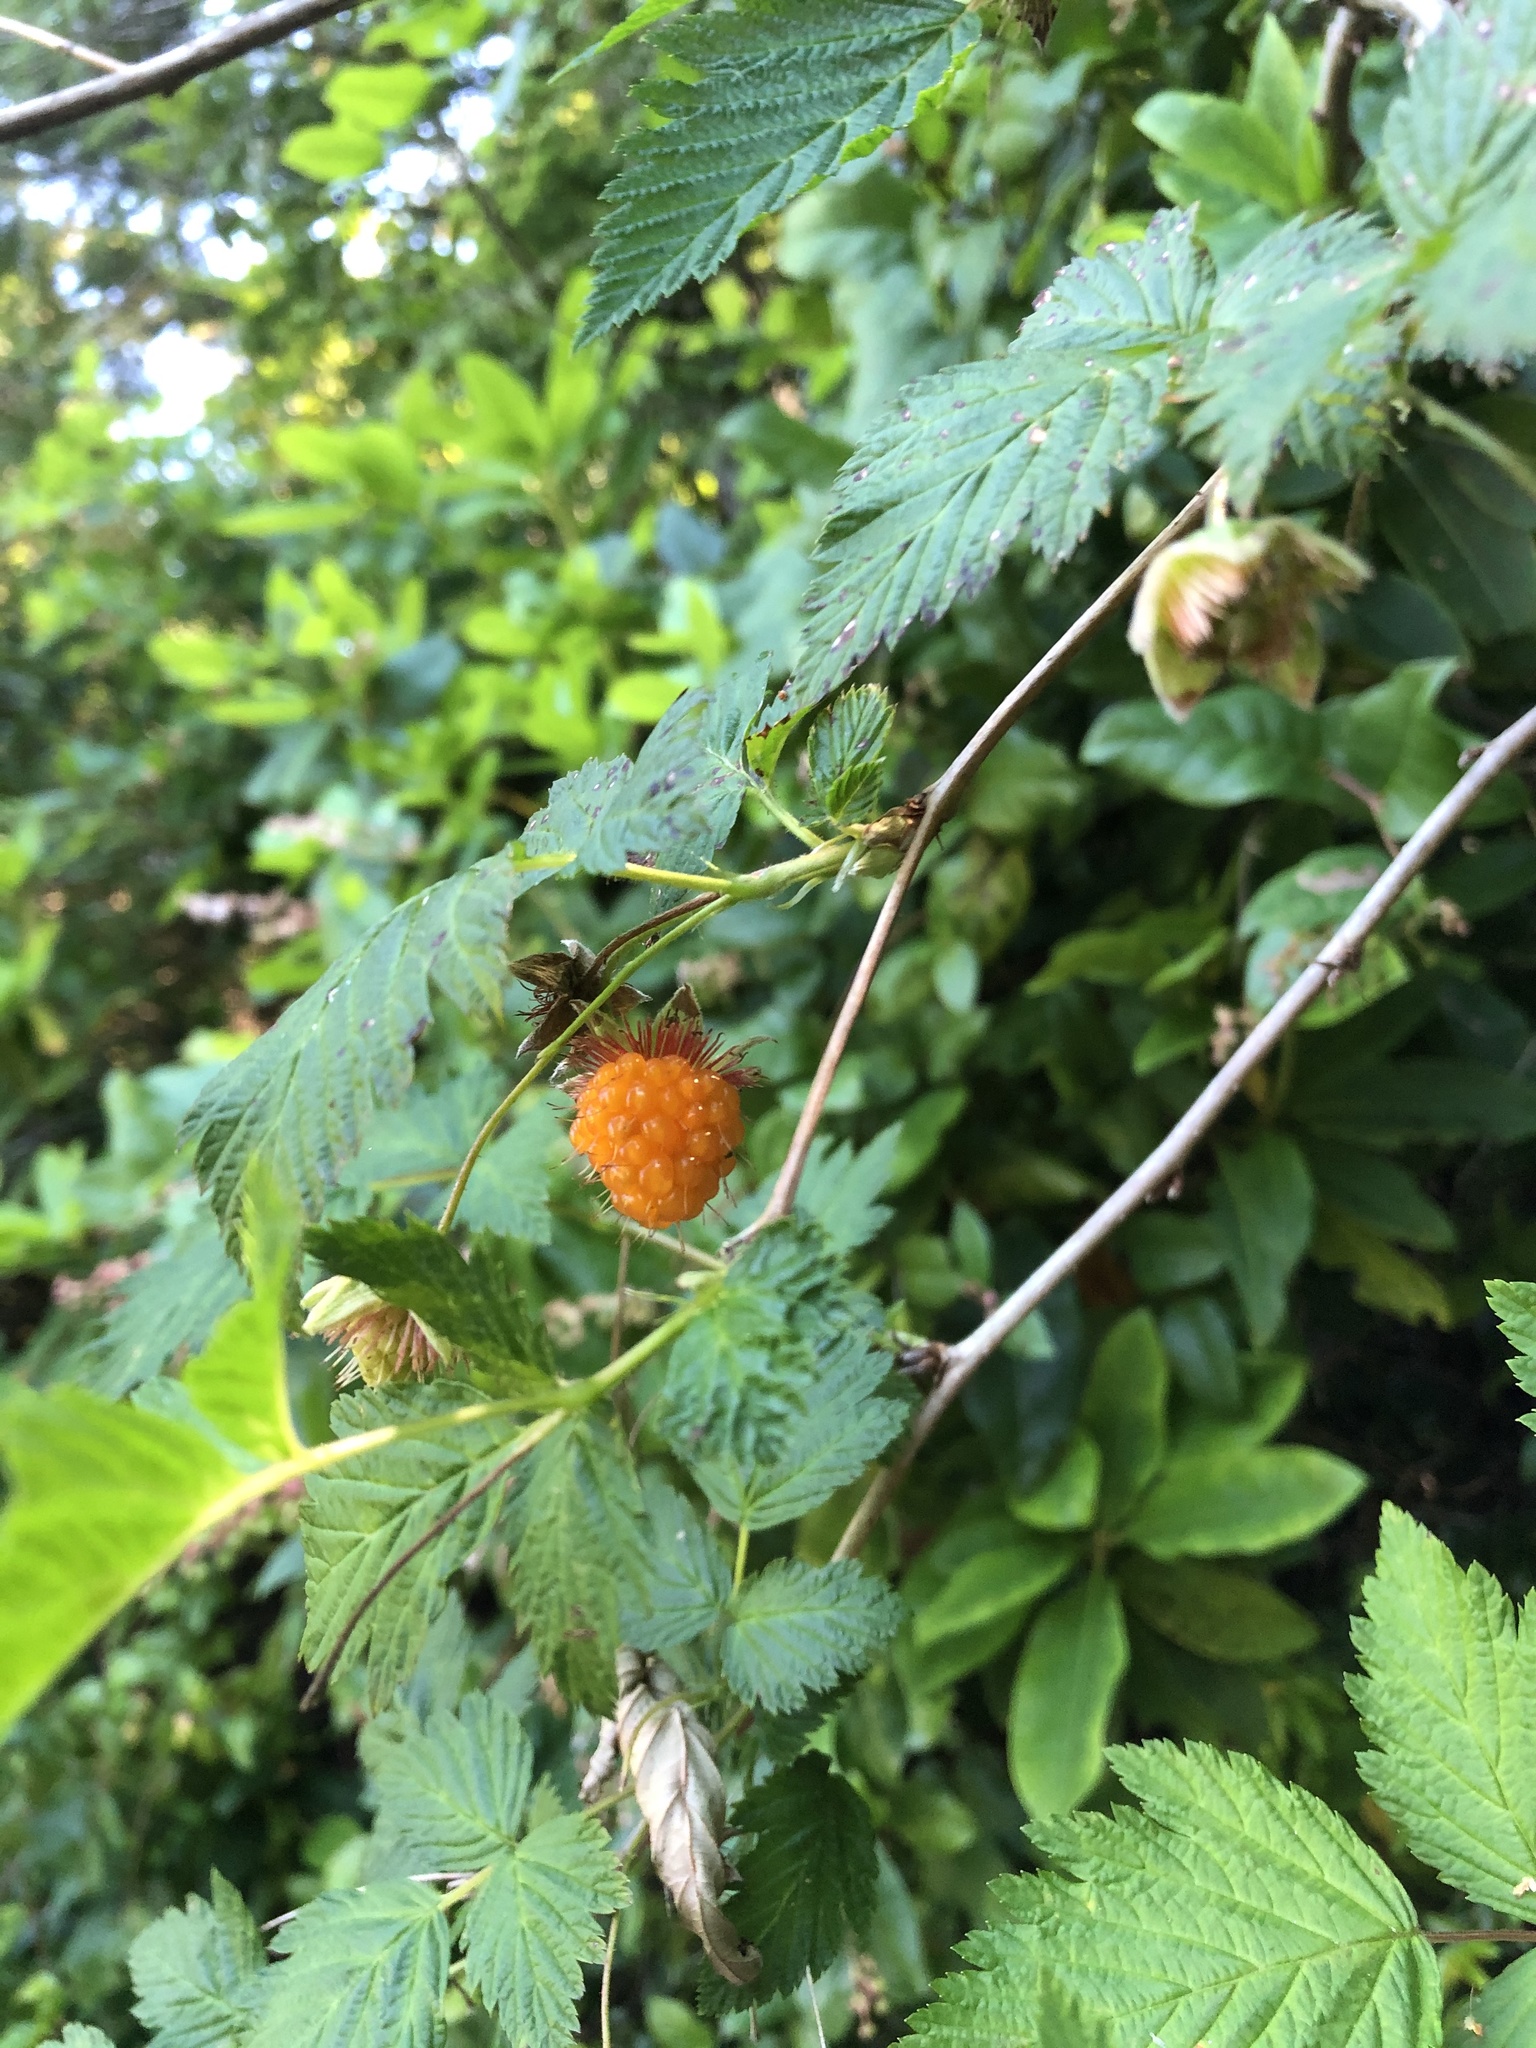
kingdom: Plantae
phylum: Tracheophyta
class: Magnoliopsida
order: Rosales
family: Rosaceae
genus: Rubus
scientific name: Rubus spectabilis
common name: Salmonberry
